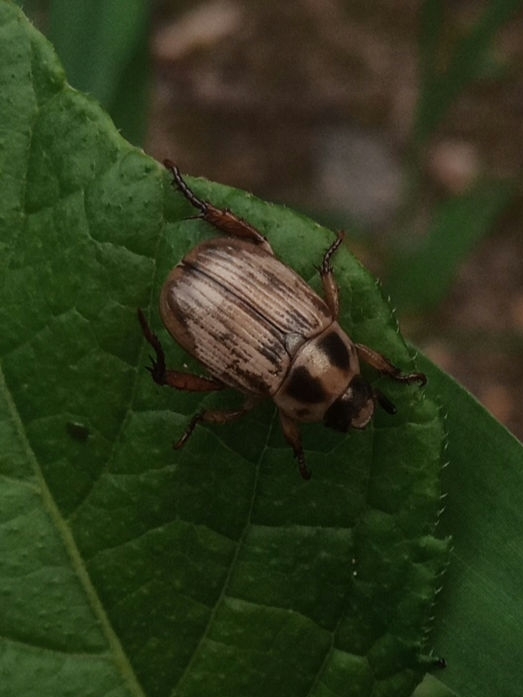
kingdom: Animalia
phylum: Arthropoda
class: Insecta
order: Coleoptera
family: Scarabaeidae
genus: Exomala
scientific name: Exomala orientalis
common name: Oriental beetle
